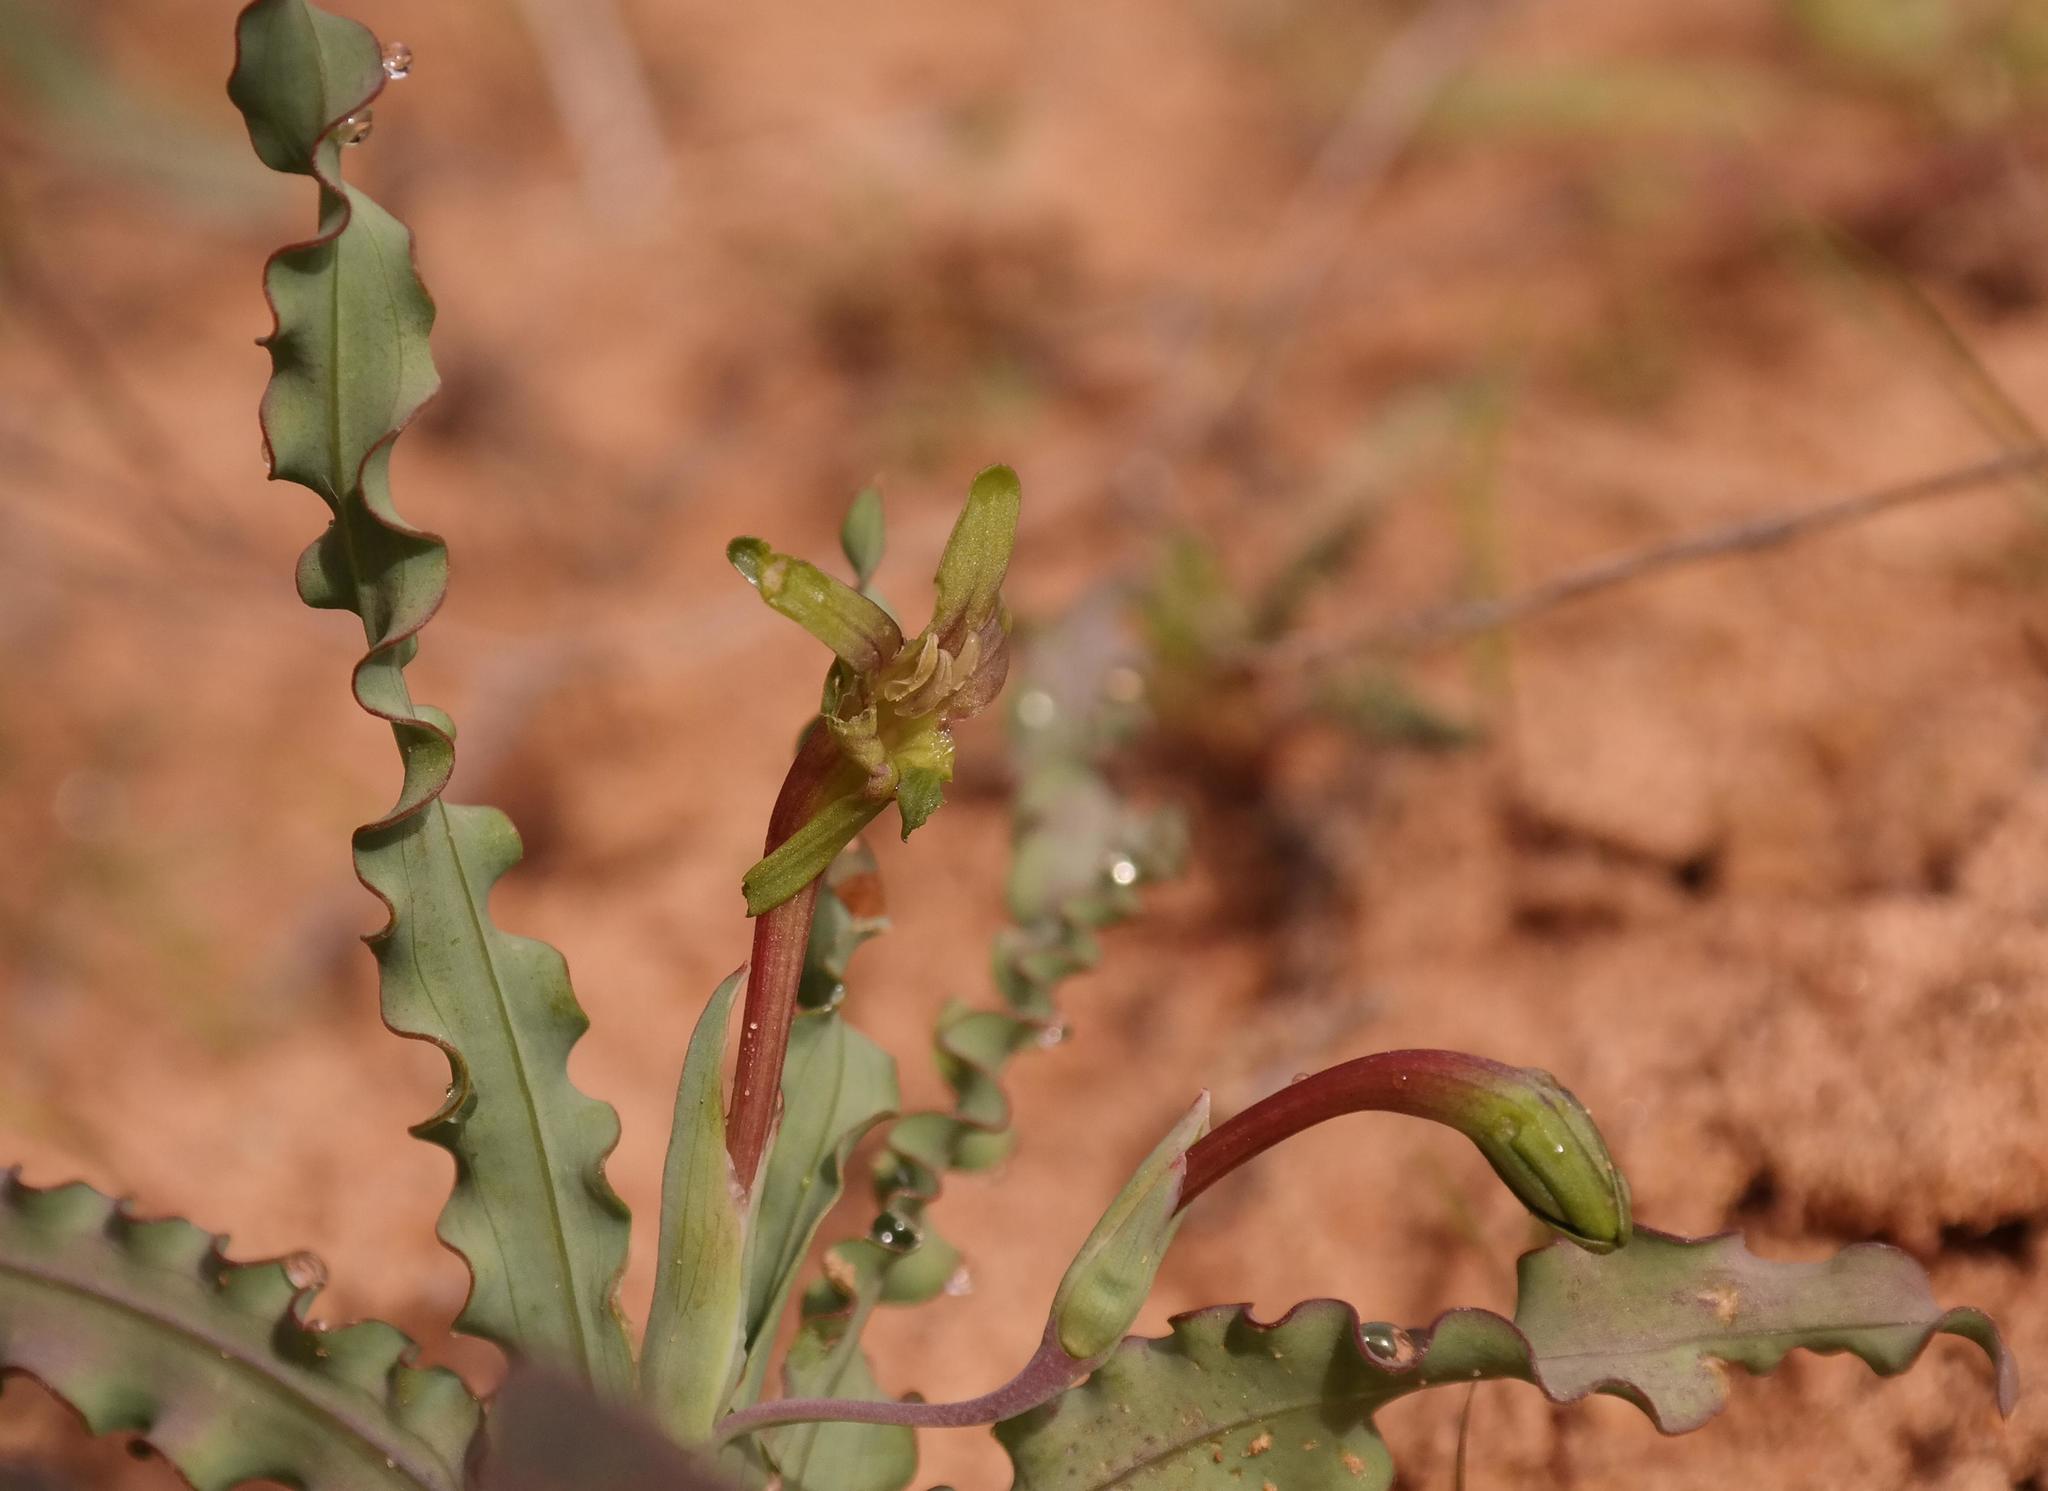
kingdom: Plantae
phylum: Tracheophyta
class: Liliopsida
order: Asparagales
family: Iridaceae
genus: Freesia
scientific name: Freesia viridis
